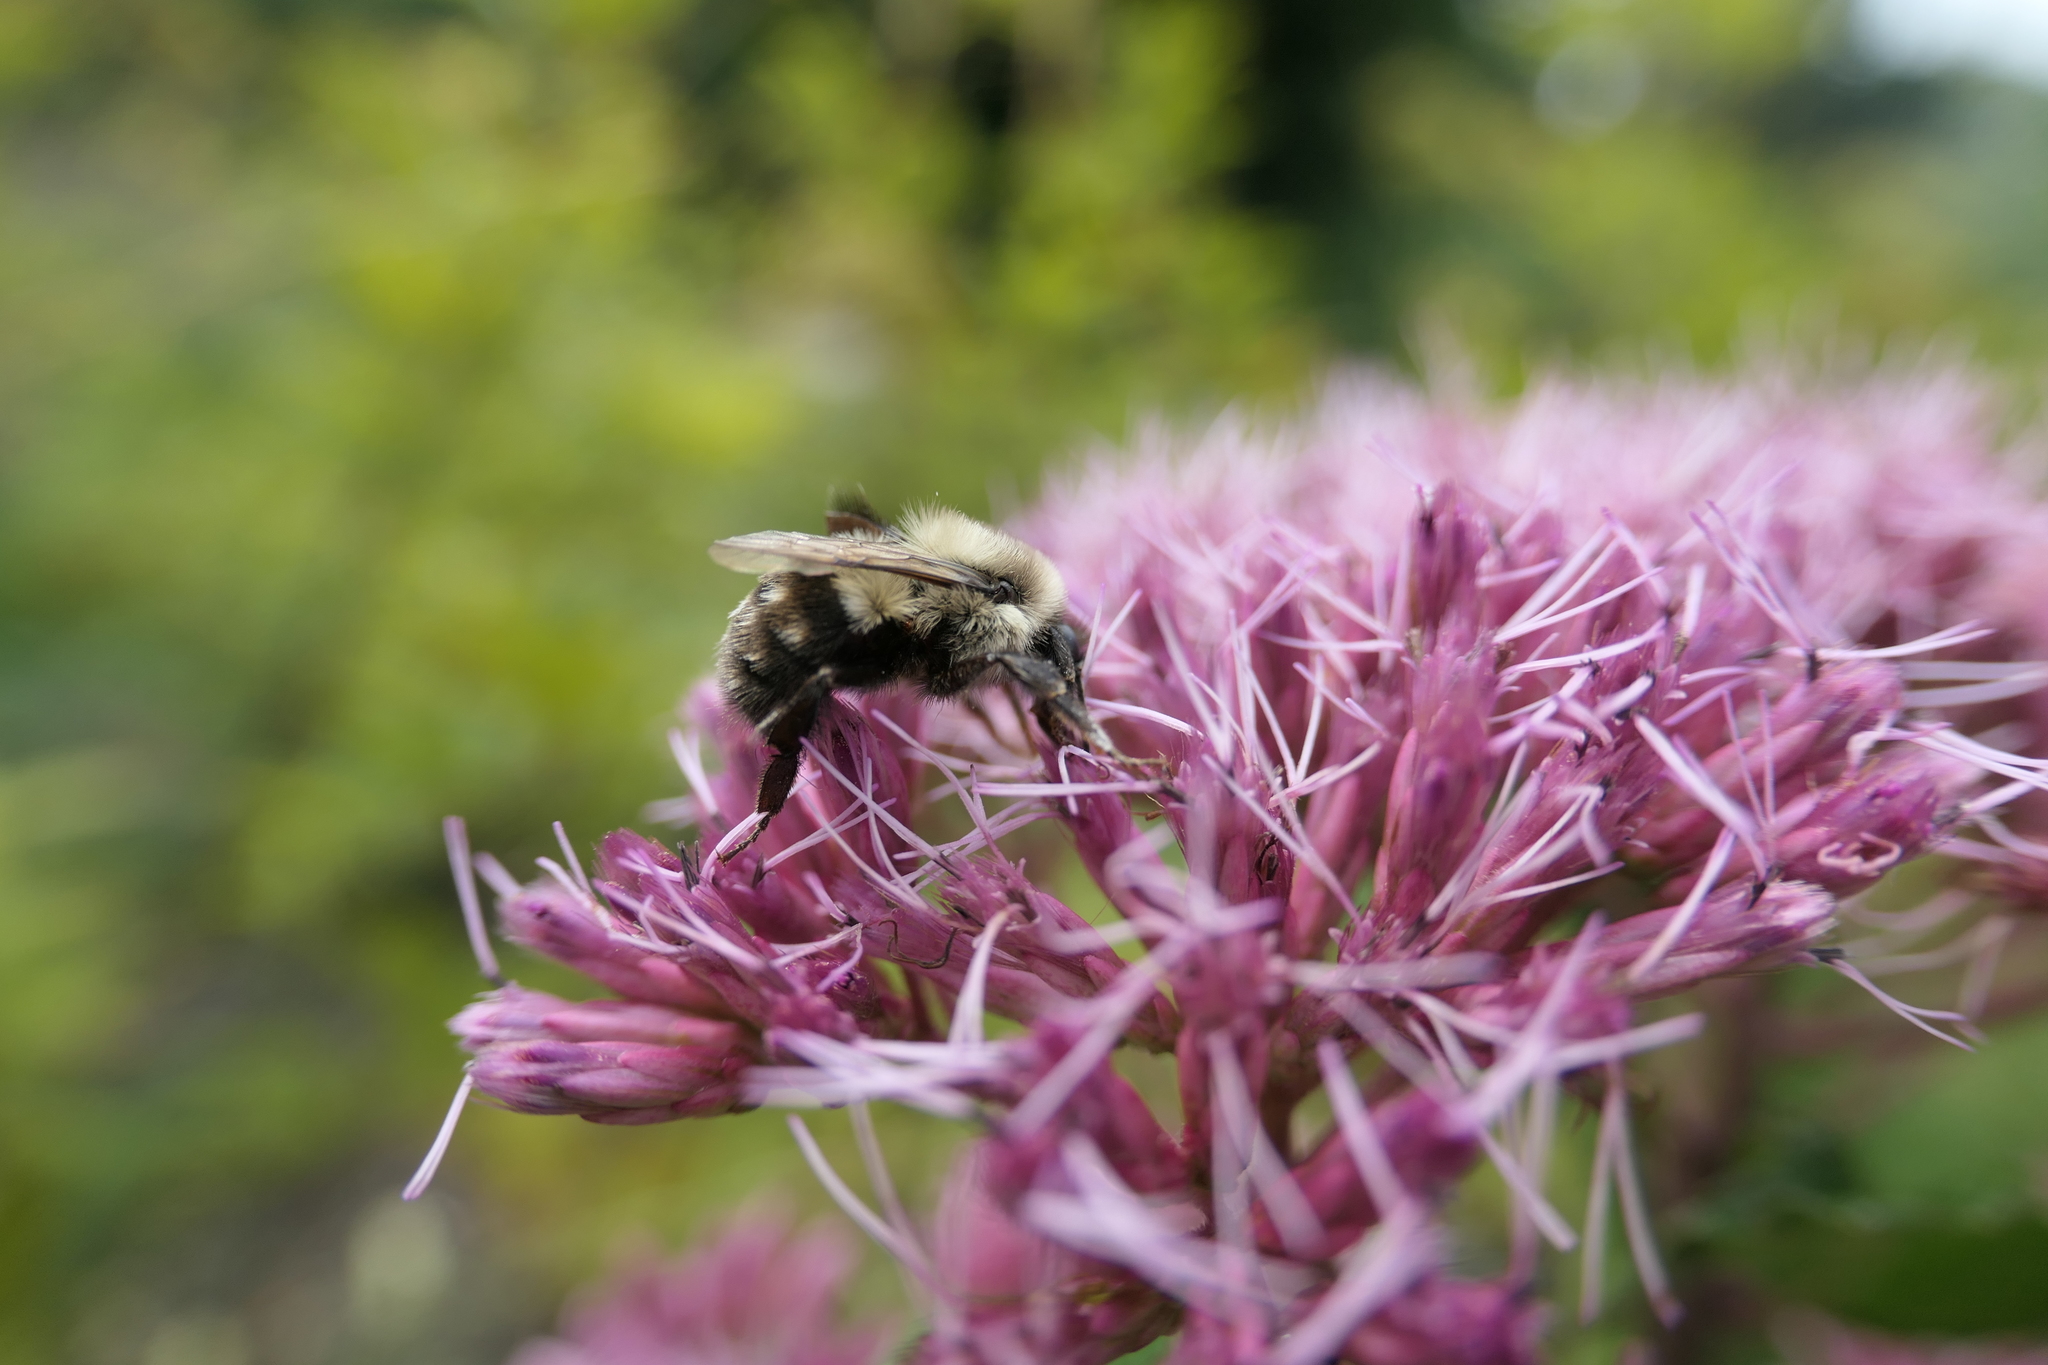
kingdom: Animalia
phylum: Arthropoda
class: Insecta
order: Hymenoptera
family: Apidae
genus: Bombus
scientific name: Bombus impatiens
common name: Common eastern bumble bee
